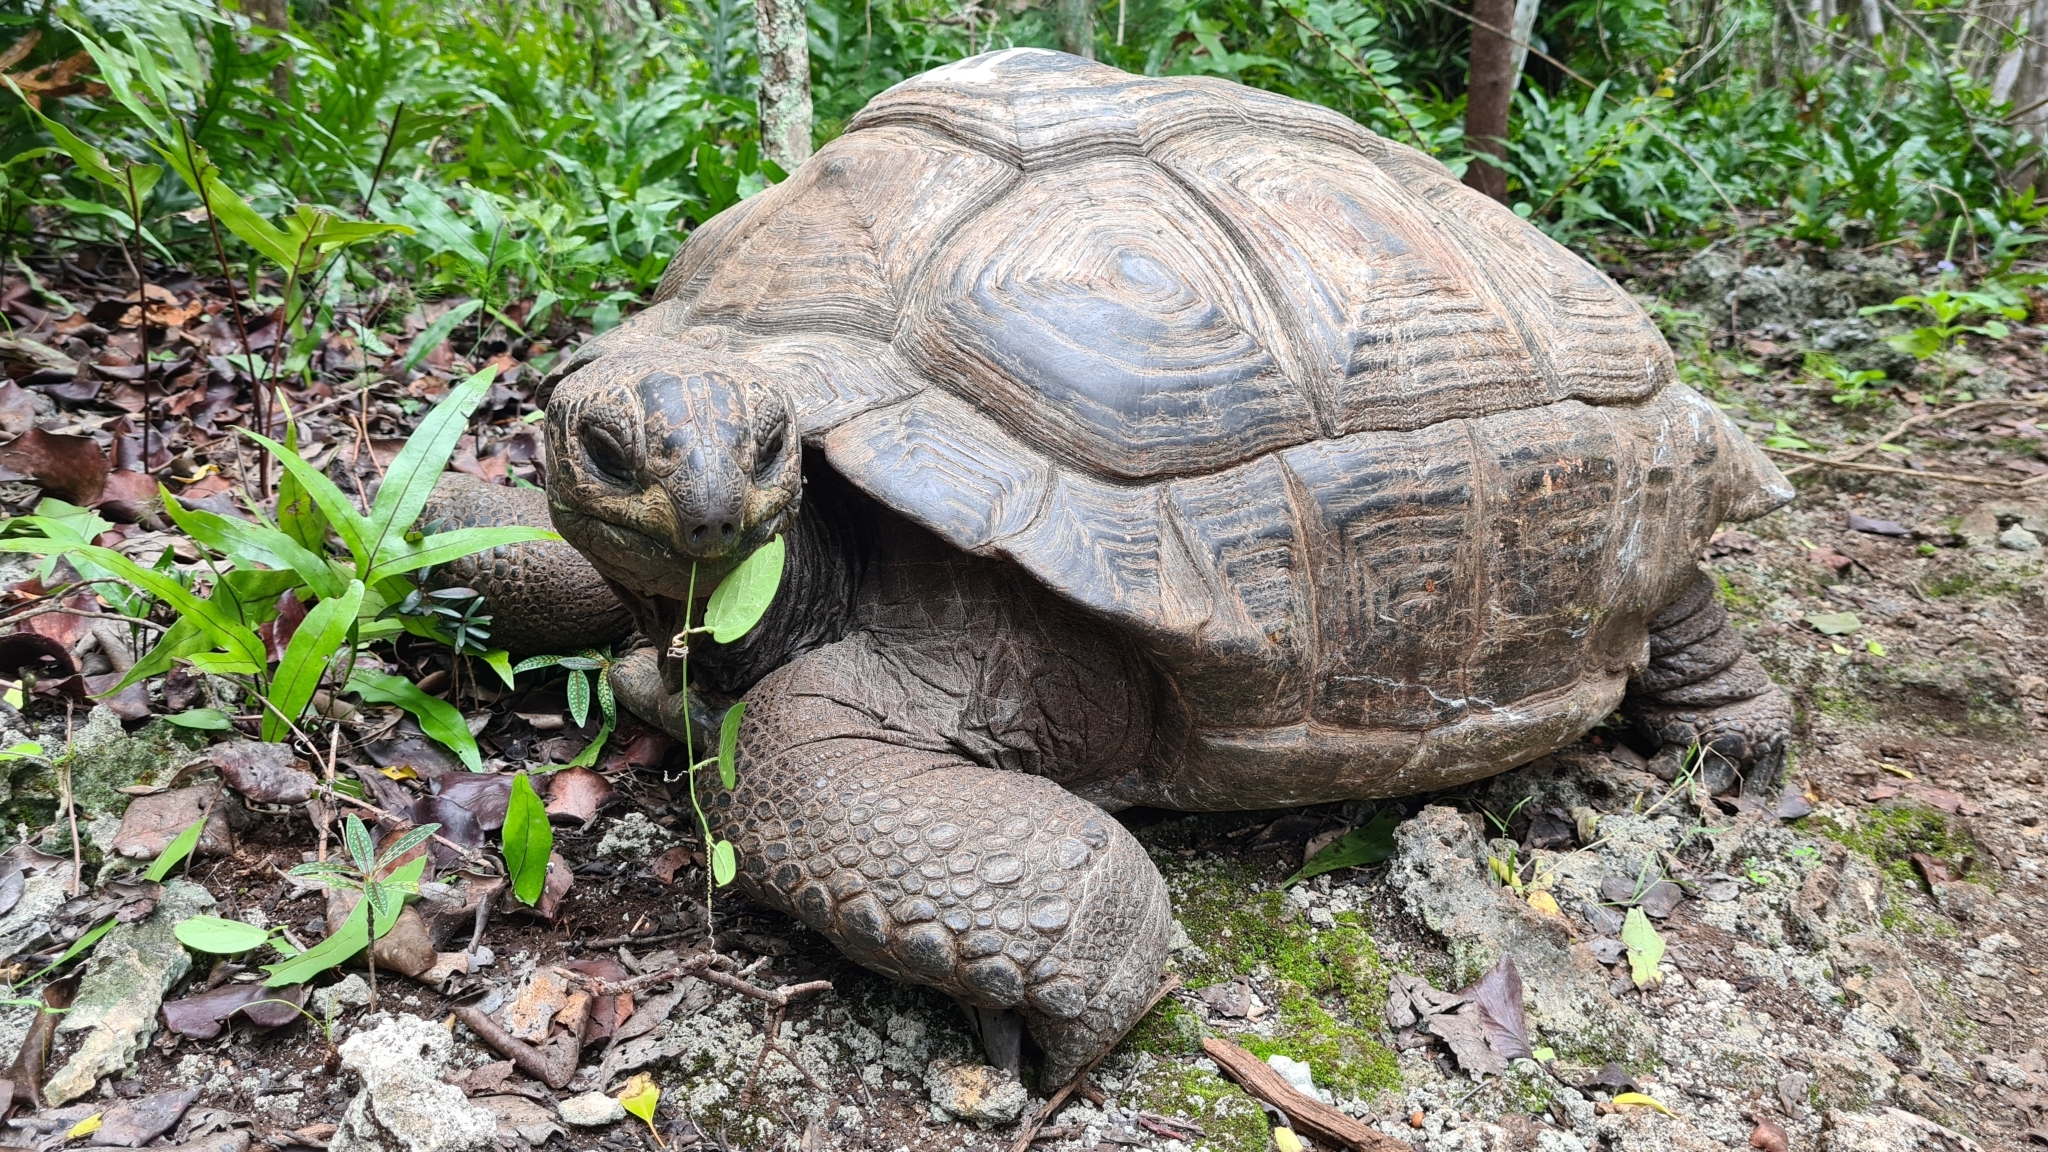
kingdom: Animalia
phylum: Chordata
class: Testudines
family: Testudinidae
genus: Aldabrachelys
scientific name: Aldabrachelys gigantea
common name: Aldabra giant tortoise
